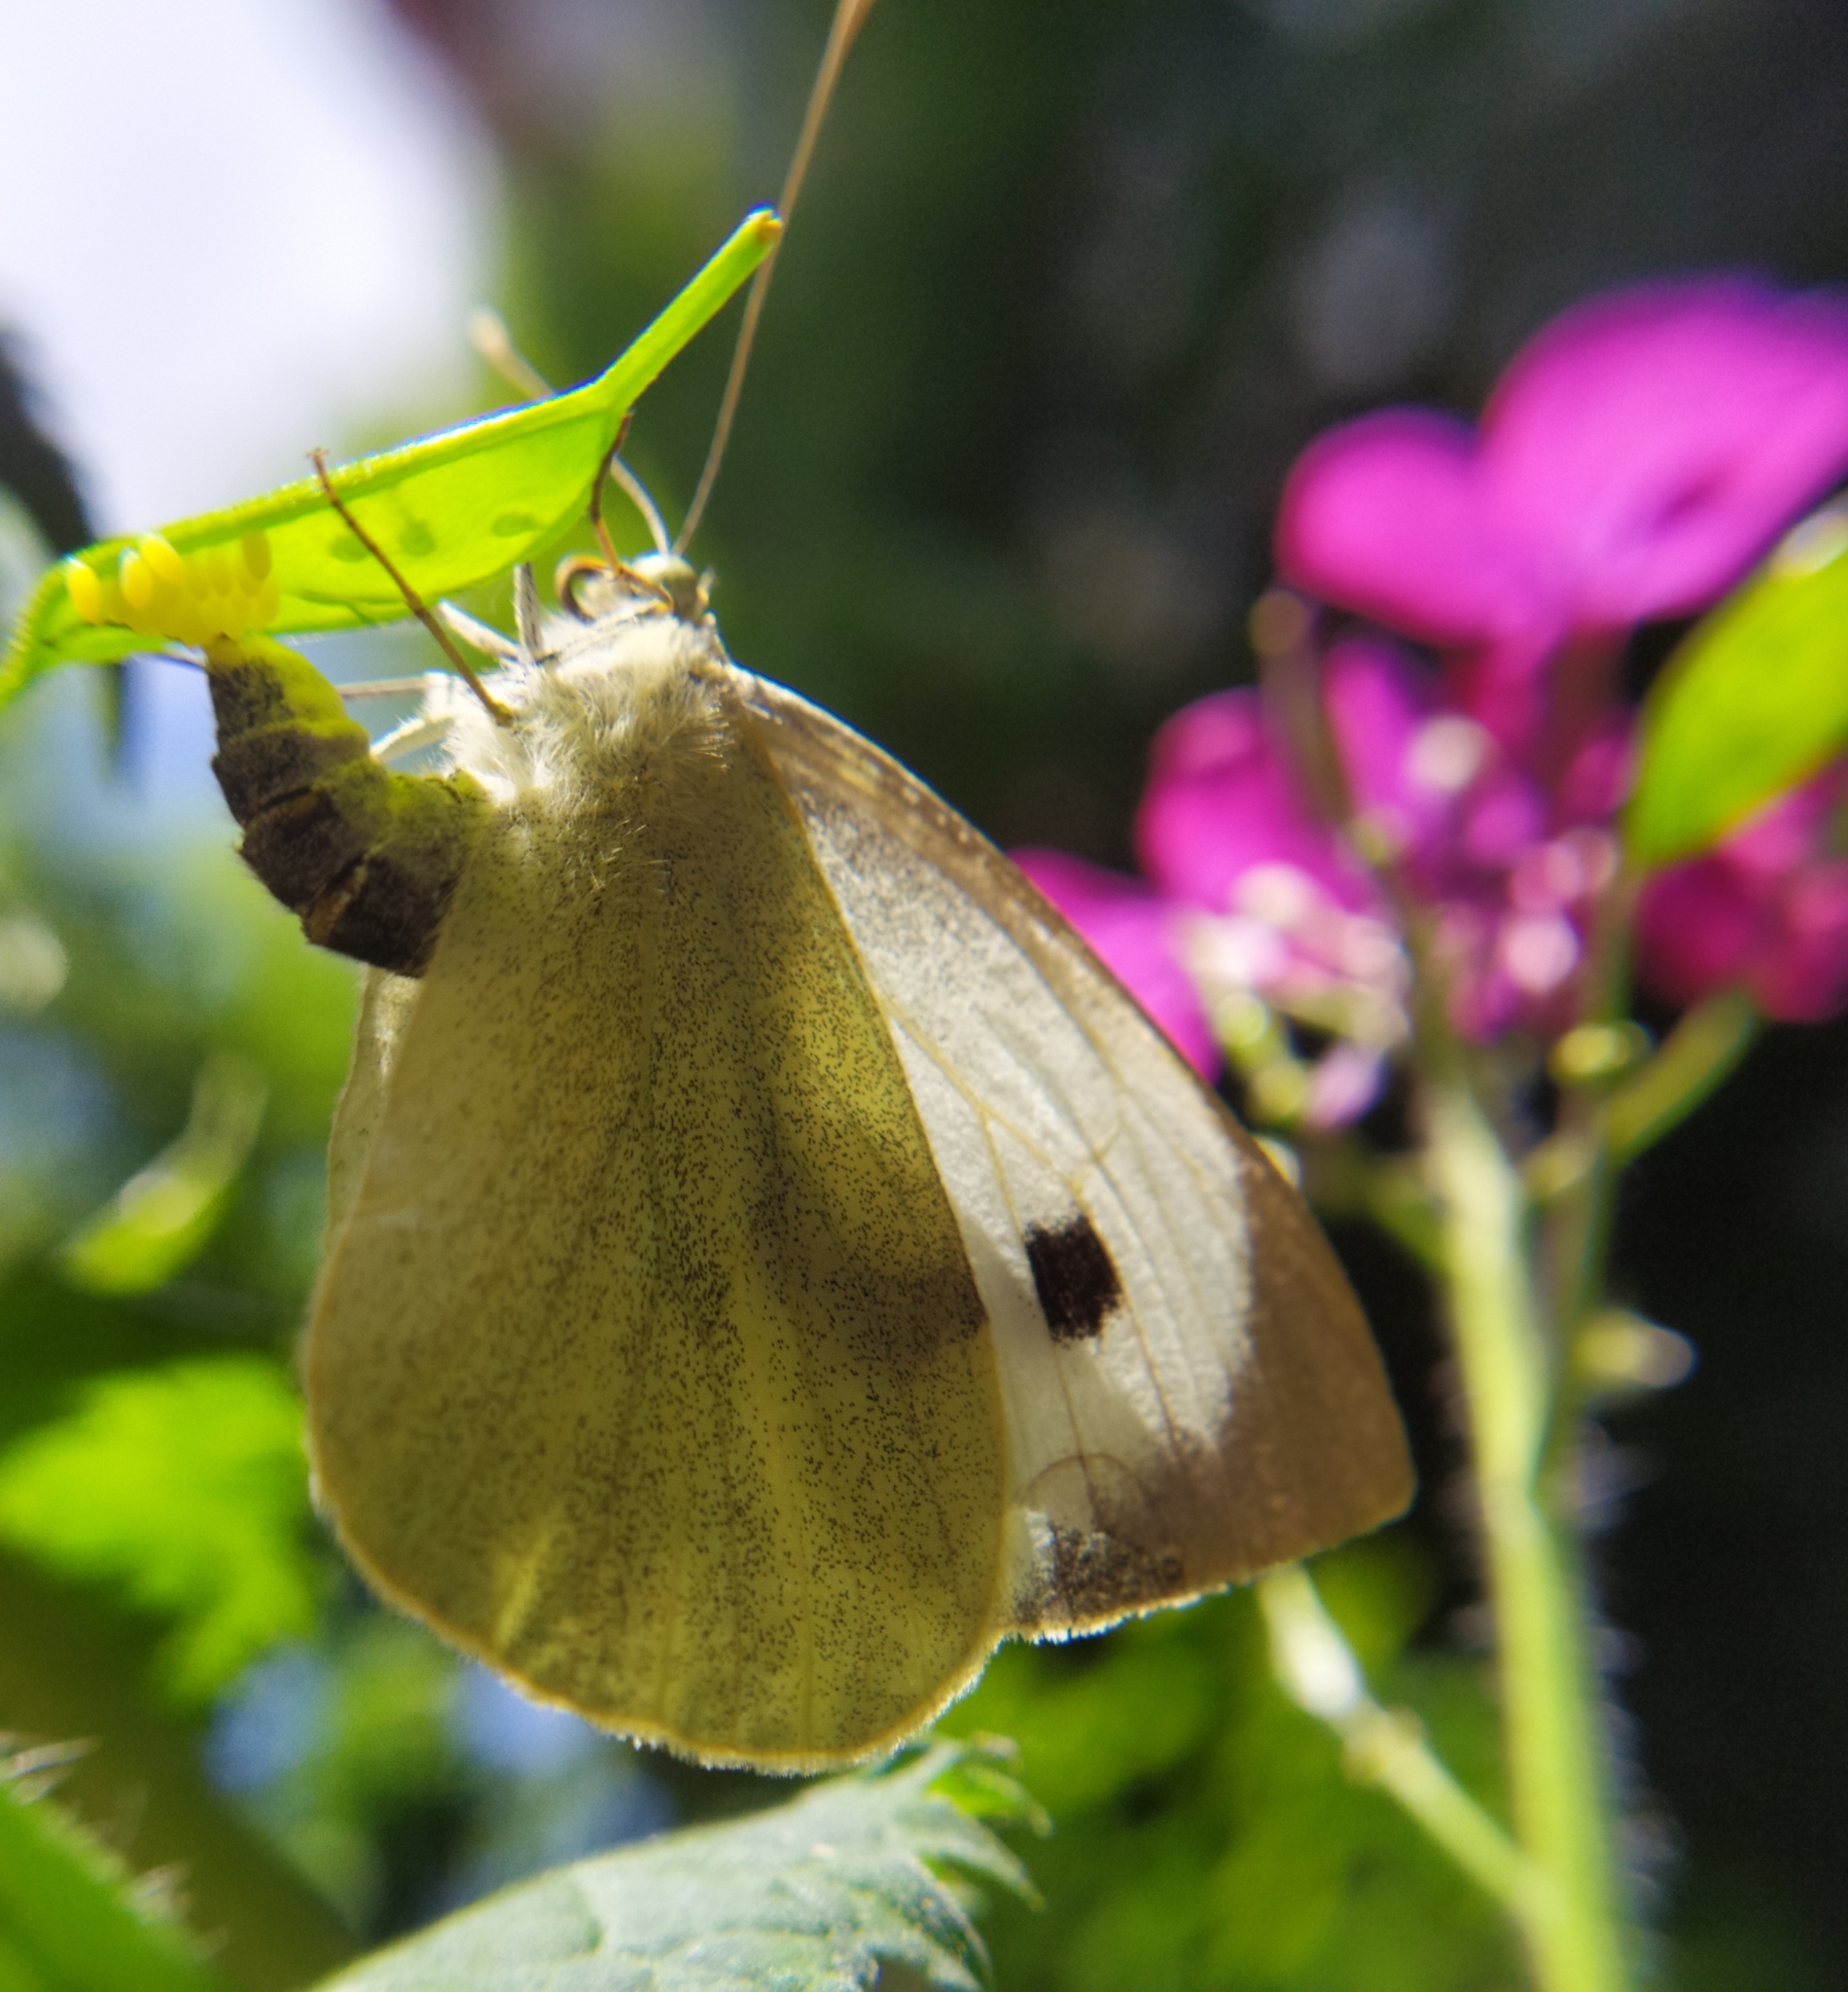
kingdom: Animalia
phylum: Arthropoda
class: Insecta
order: Lepidoptera
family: Pieridae
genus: Pieris
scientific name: Pieris brassicae
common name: Large white
